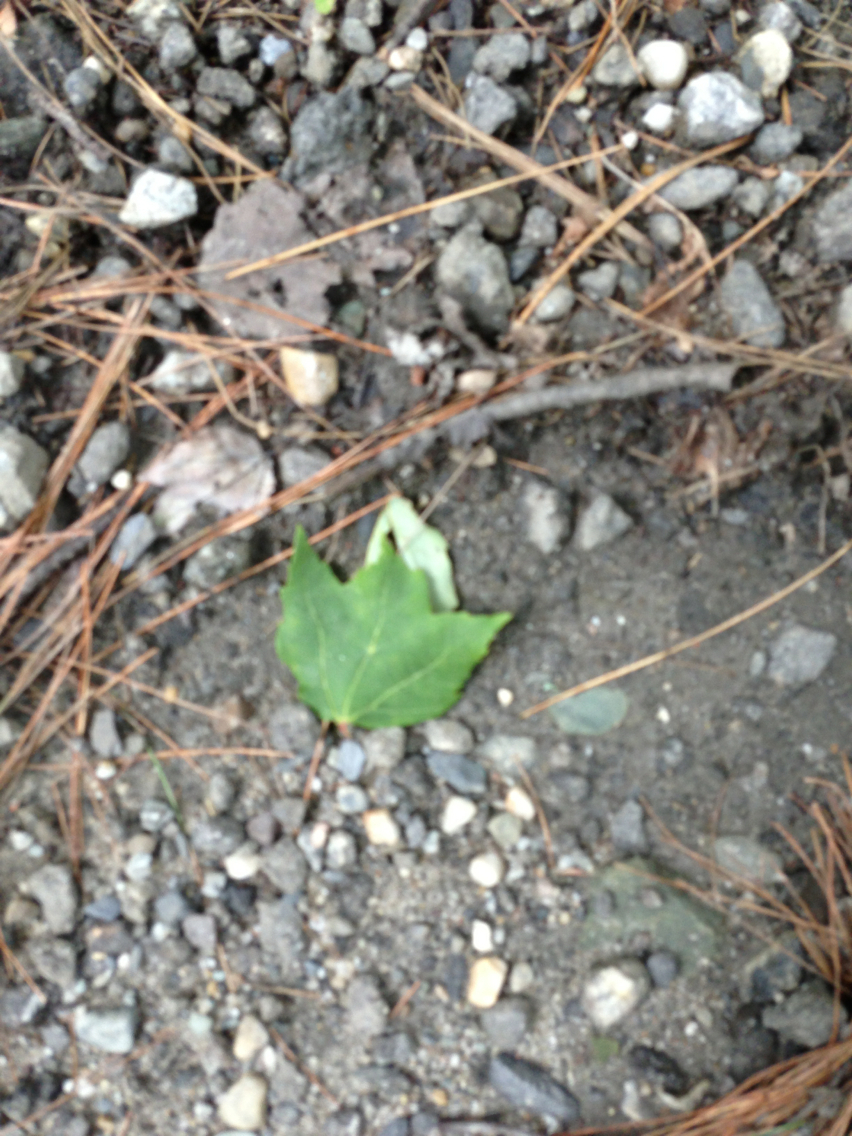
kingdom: Plantae
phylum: Tracheophyta
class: Magnoliopsida
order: Sapindales
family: Sapindaceae
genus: Acer
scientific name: Acer rubrum
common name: Red maple
